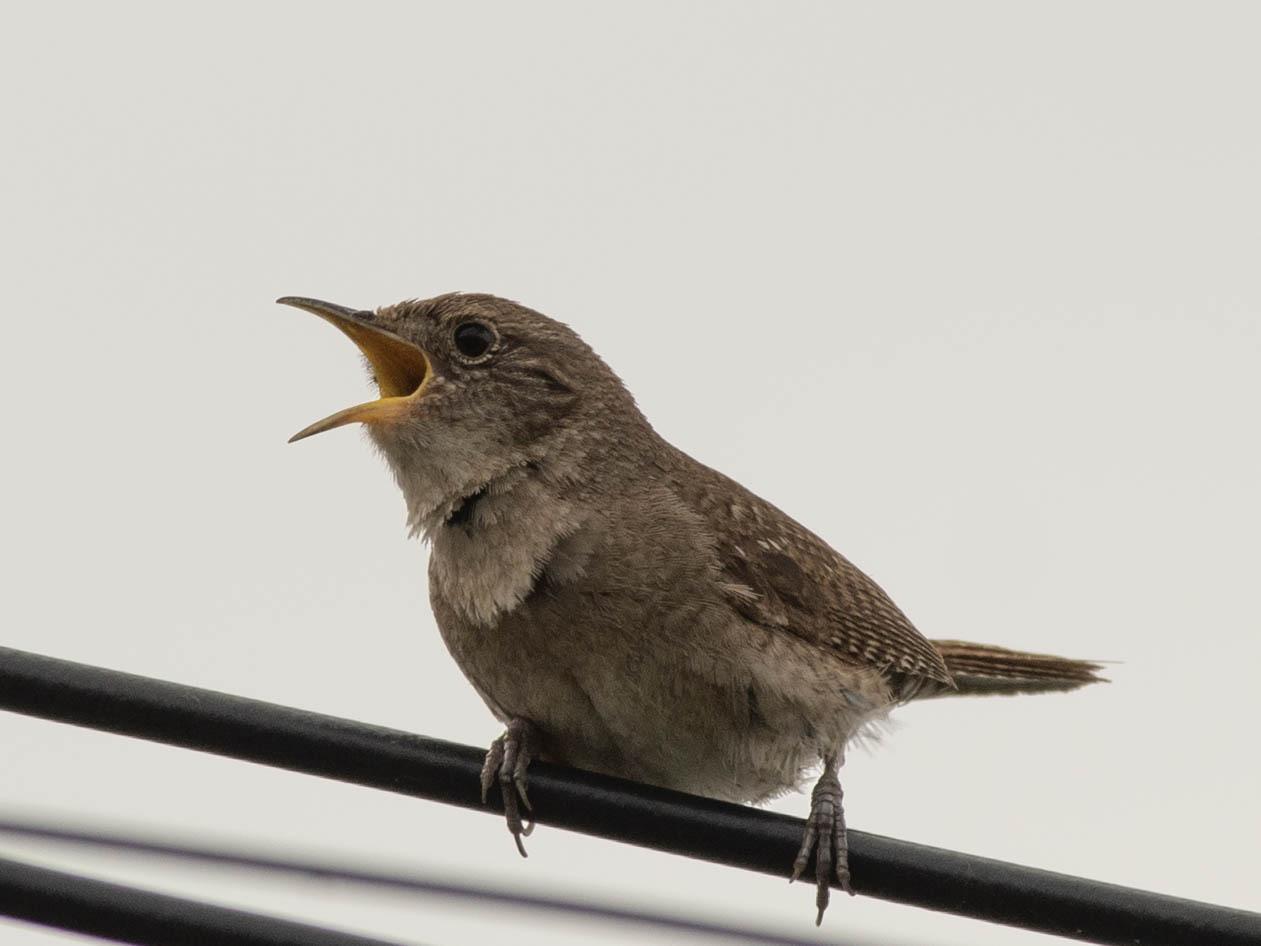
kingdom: Animalia
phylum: Chordata
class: Aves
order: Passeriformes
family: Troglodytidae
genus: Troglodytes
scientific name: Troglodytes aedon
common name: House wren
